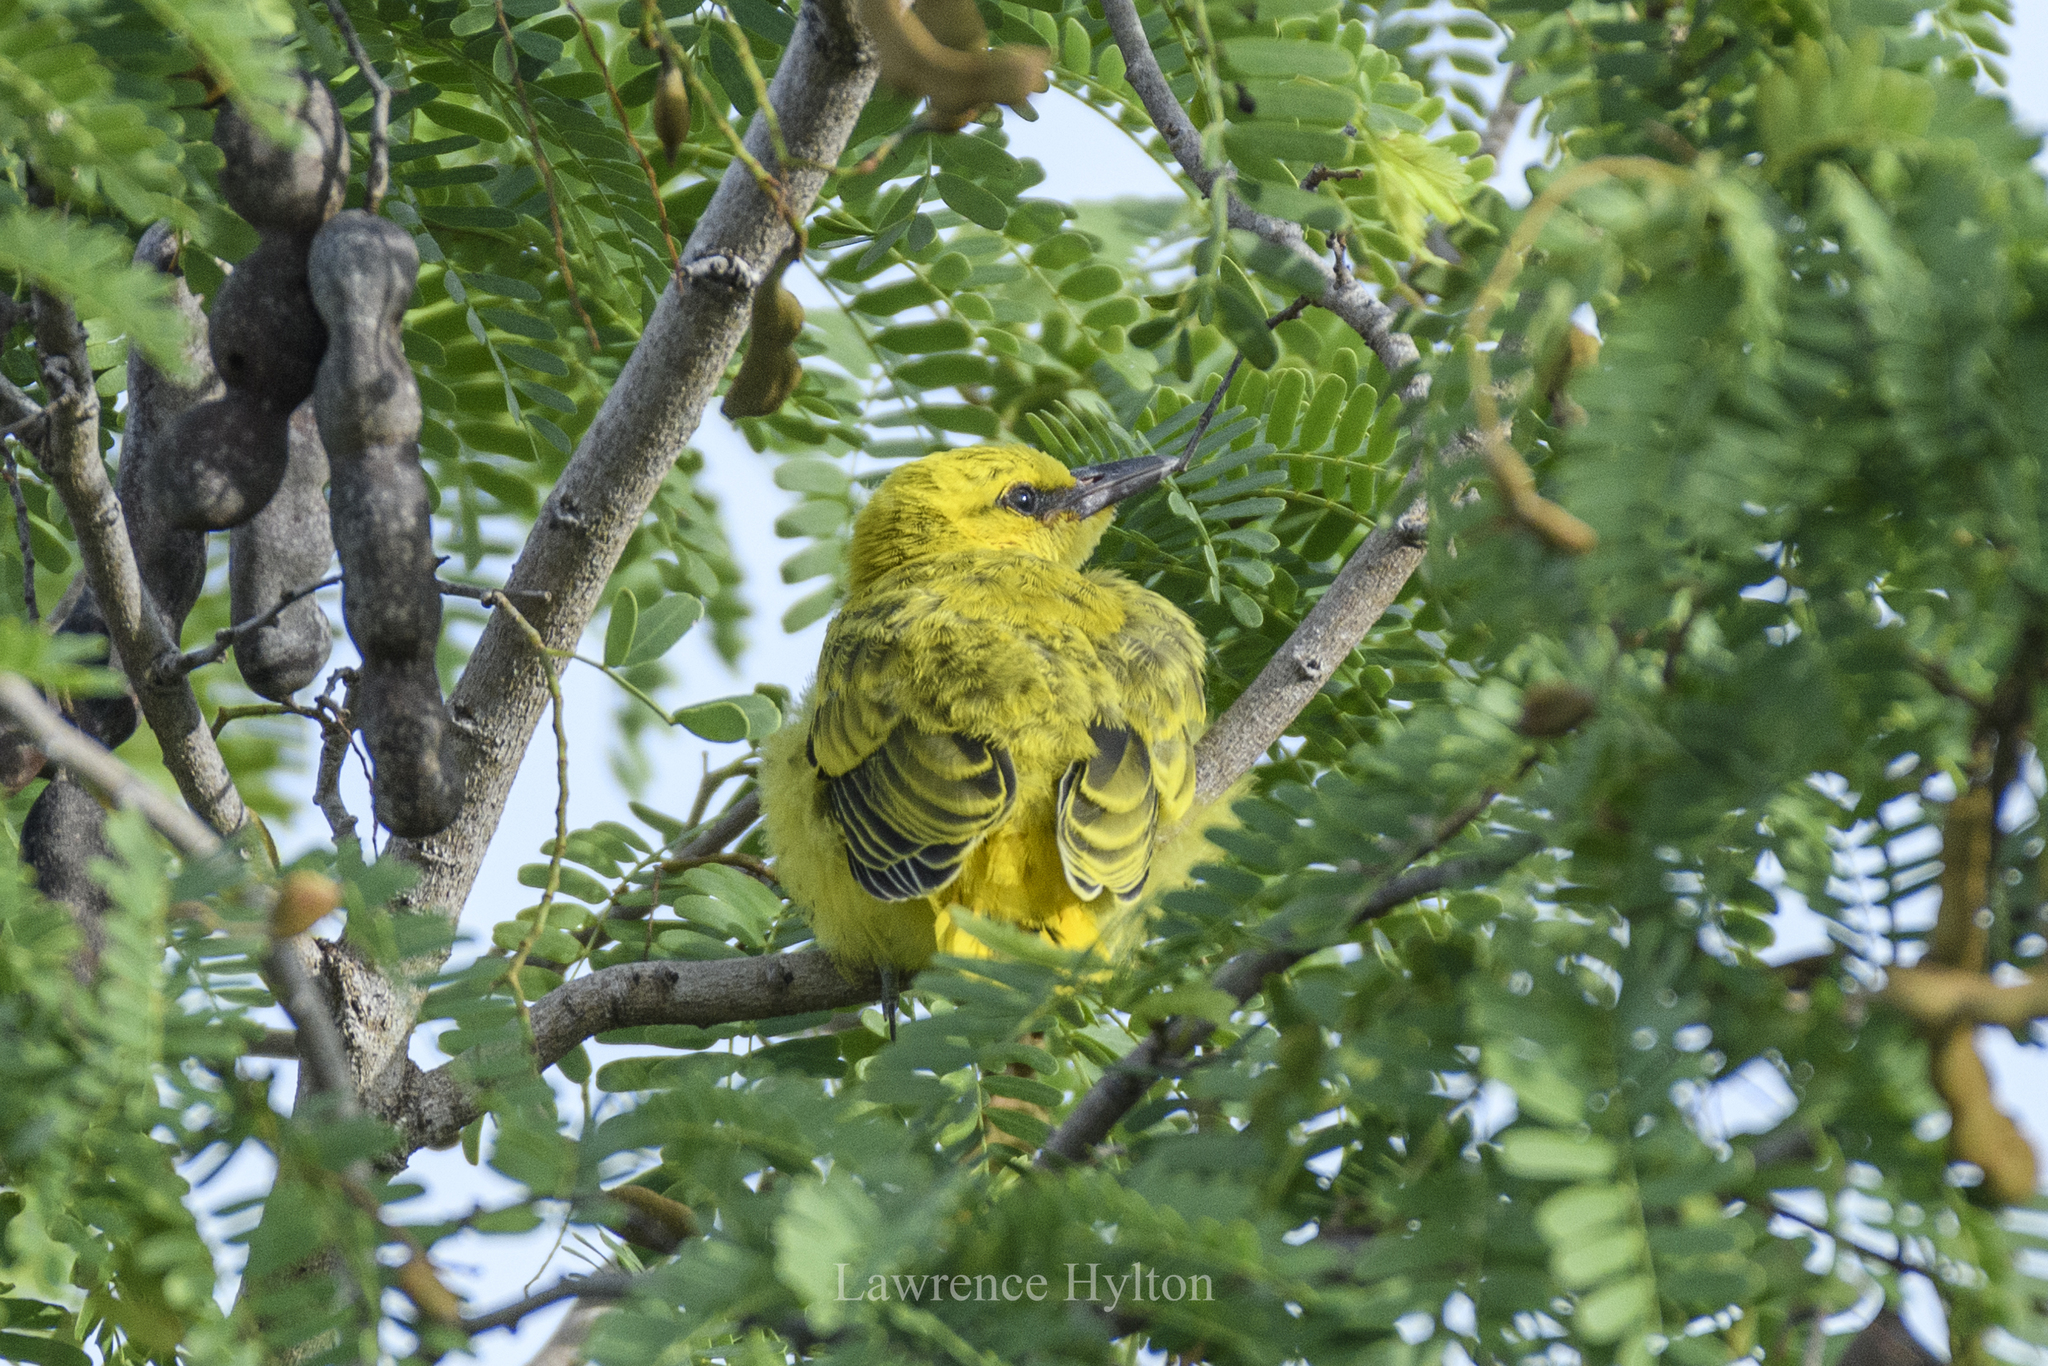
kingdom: Animalia
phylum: Chordata
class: Aves
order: Passeriformes
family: Oriolidae
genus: Oriolus
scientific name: Oriolus chinensis
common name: Black-naped oriole
